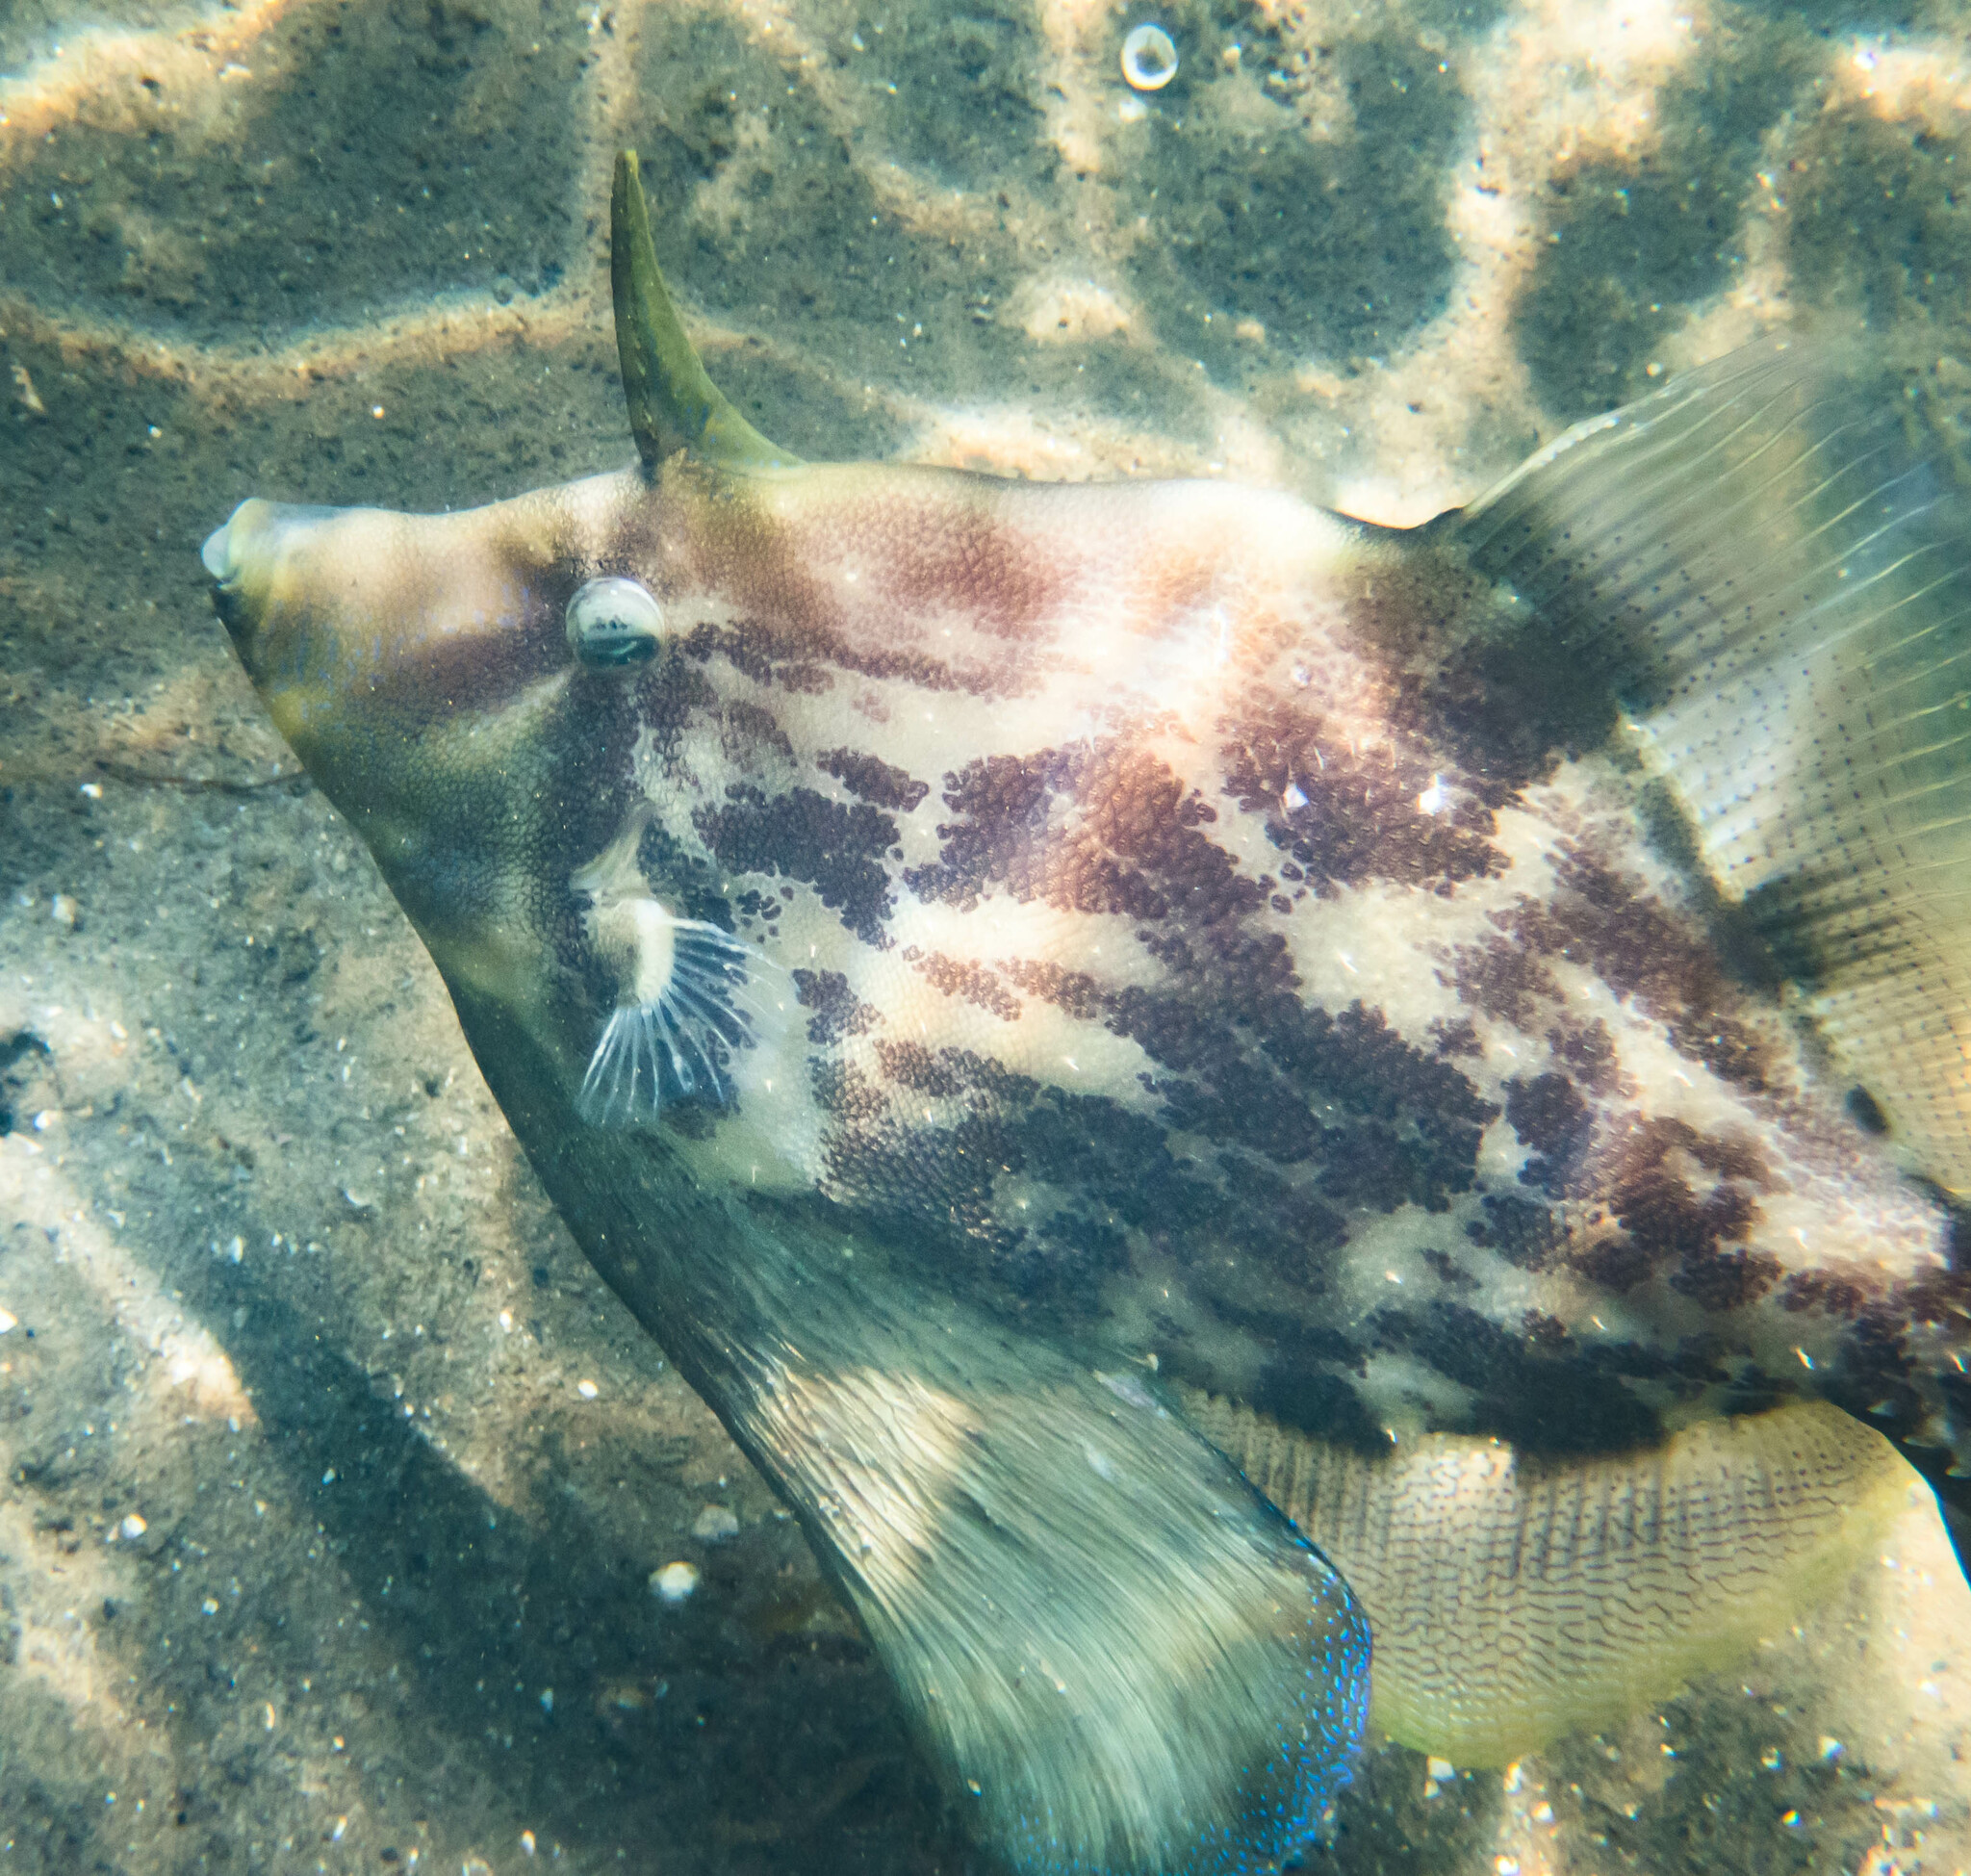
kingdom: Animalia
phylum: Chordata
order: Tetraodontiformes
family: Monacanthidae
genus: Monacanthus
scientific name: Monacanthus chinensis
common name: Centreboard leatherjacket
